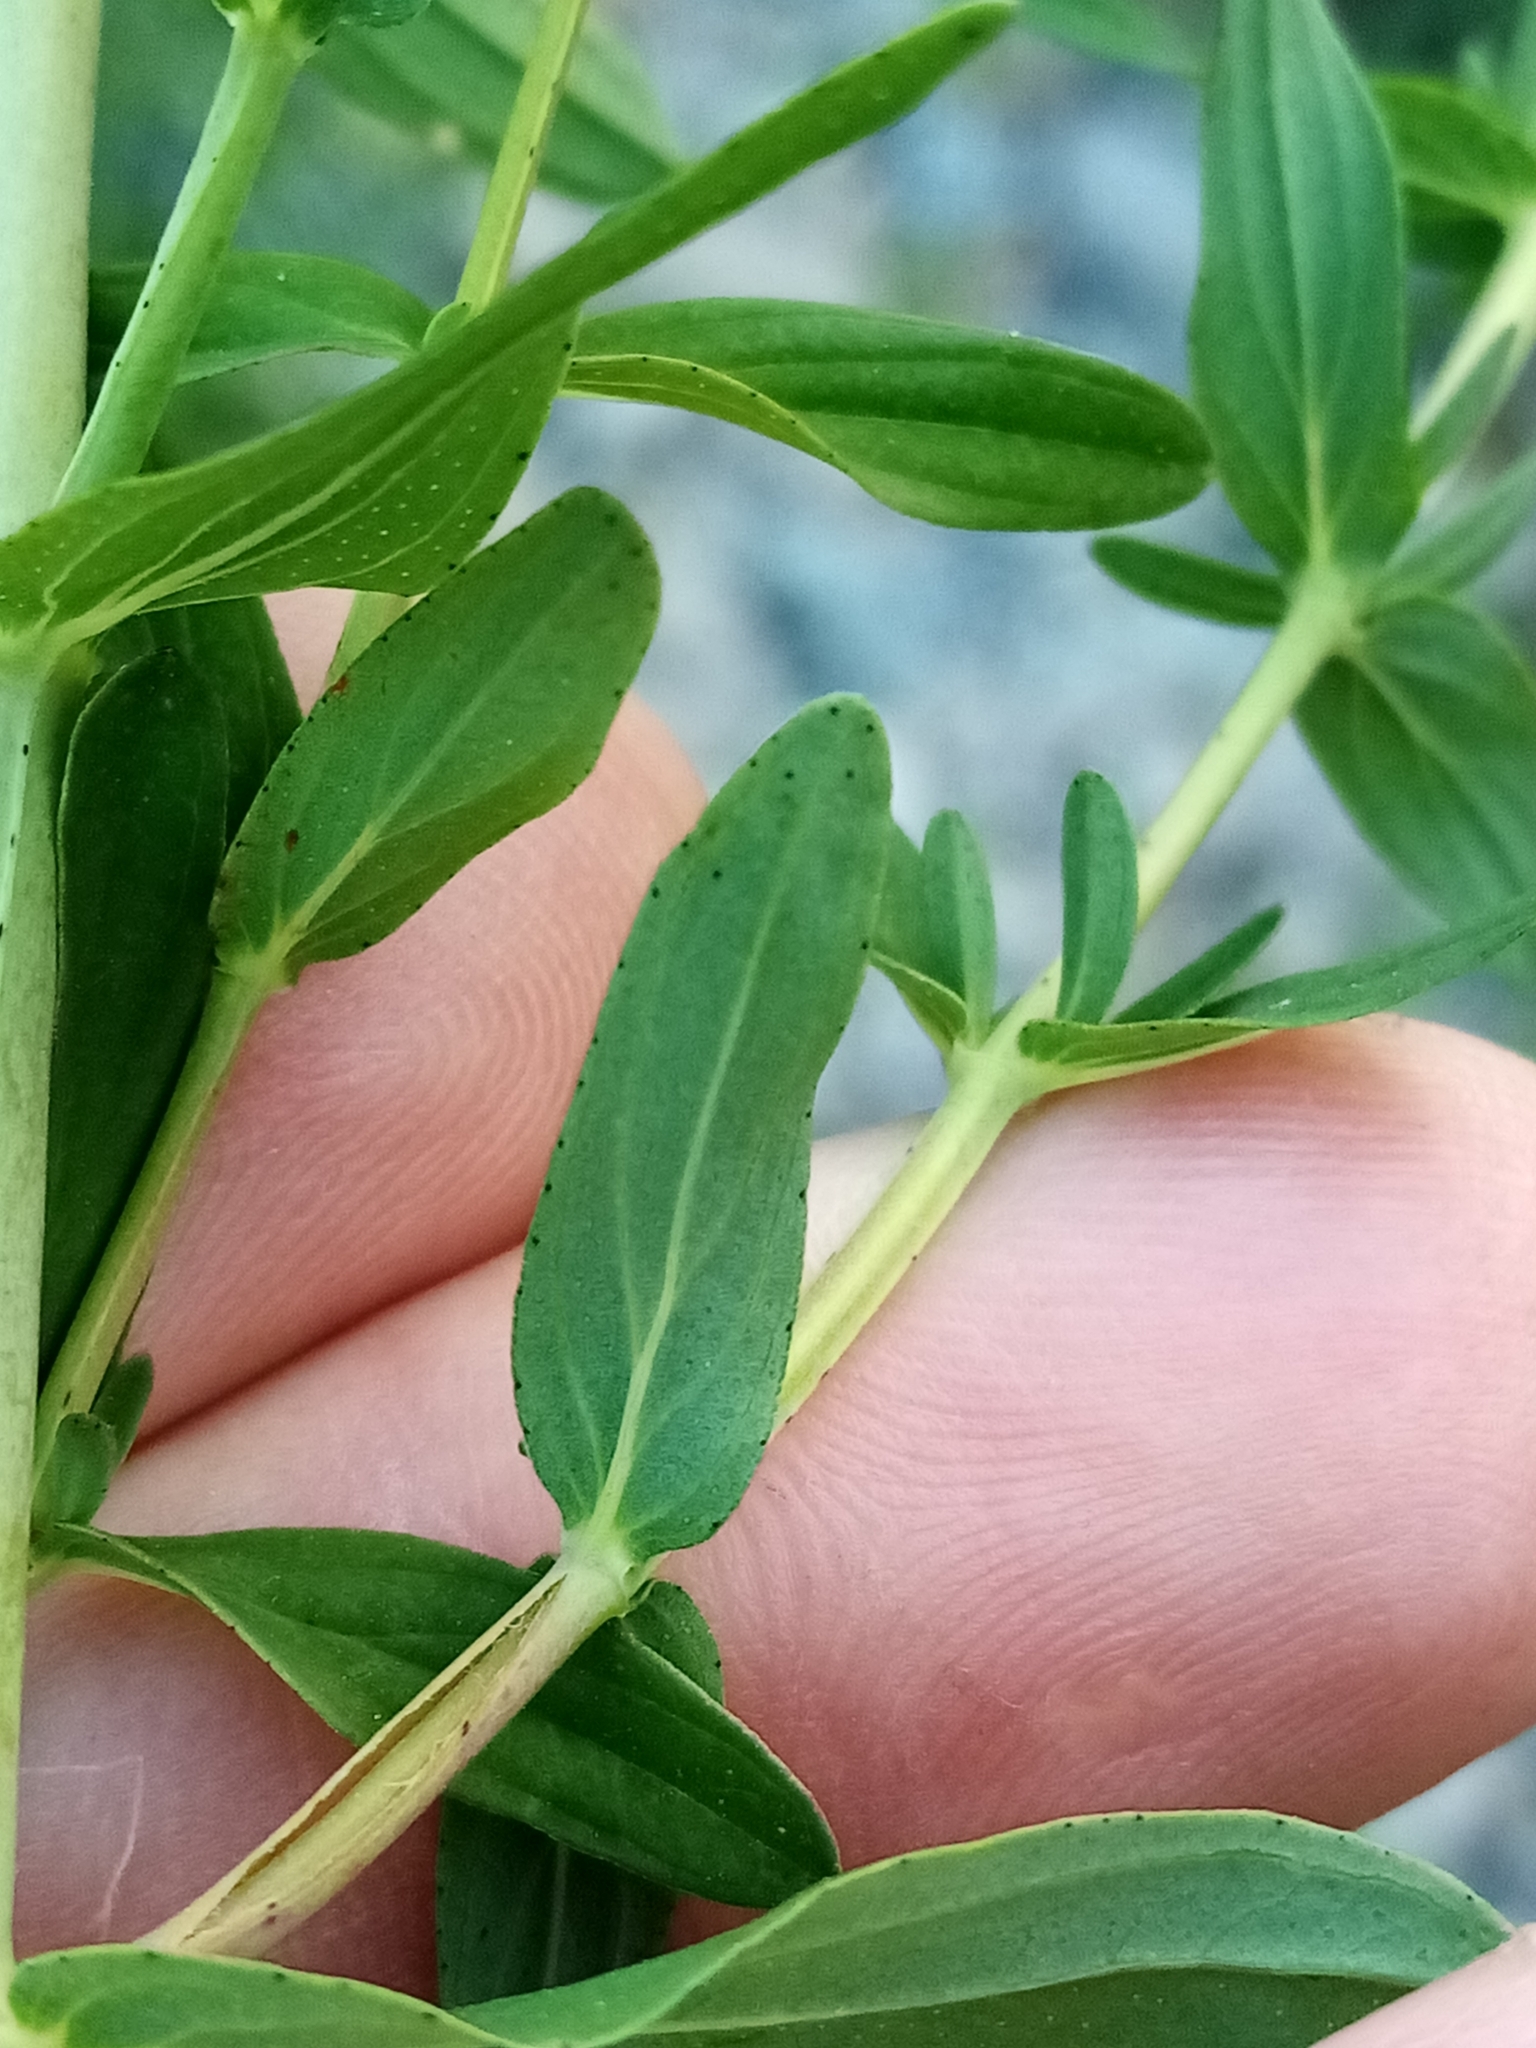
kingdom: Plantae
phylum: Tracheophyta
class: Magnoliopsida
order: Malpighiales
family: Hypericaceae
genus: Hypericum
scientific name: Hypericum perforatum
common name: Common st. johnswort
